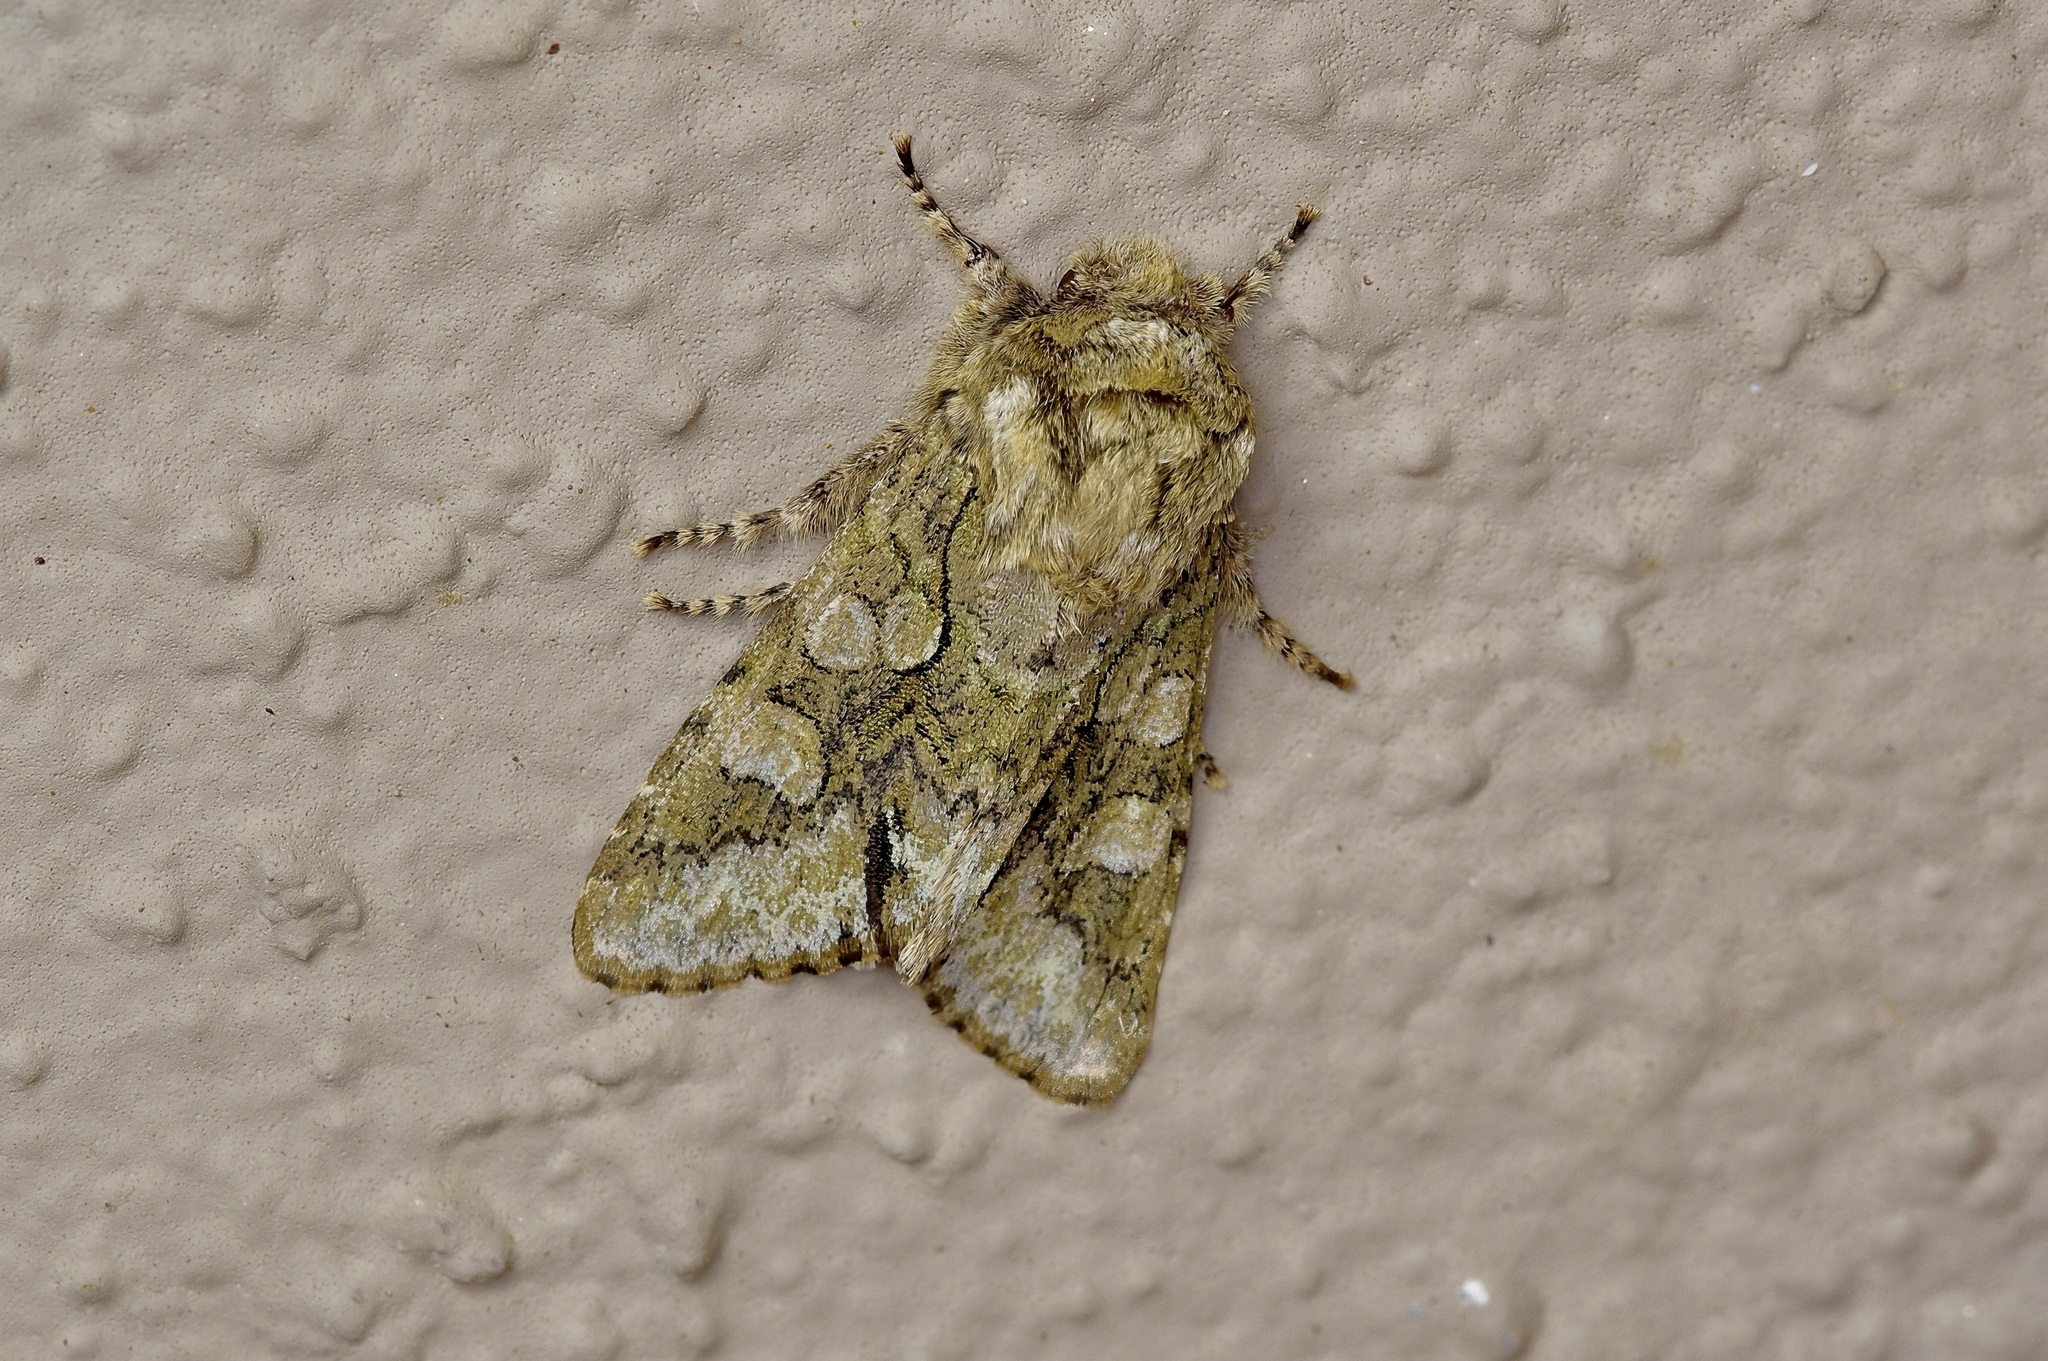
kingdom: Animalia
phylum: Arthropoda
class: Insecta
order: Lepidoptera
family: Noctuidae
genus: Psaphida
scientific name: Psaphida resumens
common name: Figure-eight sallow
